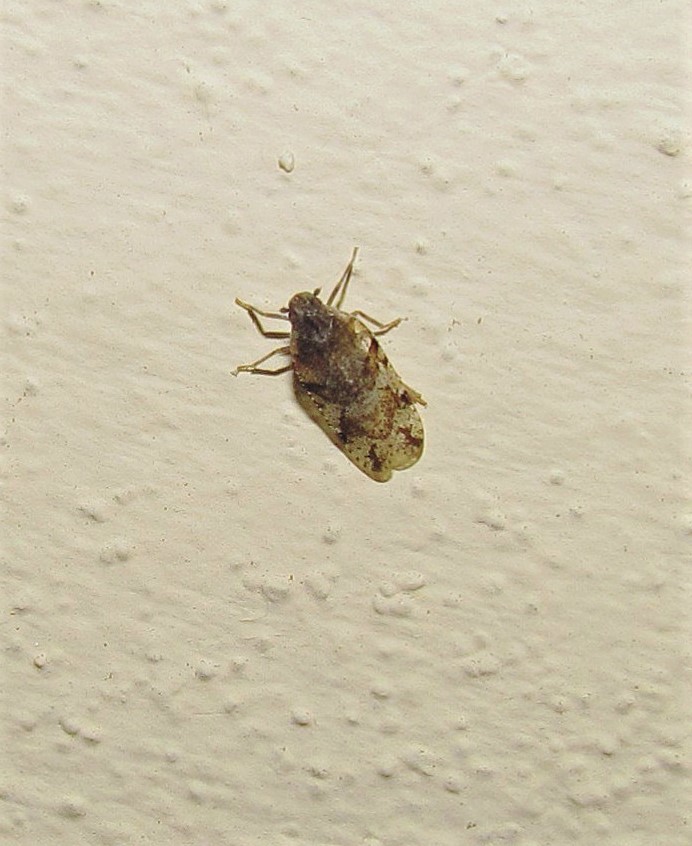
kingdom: Animalia
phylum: Arthropoda
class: Insecta
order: Hemiptera
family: Cixiidae
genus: Cixiosoma
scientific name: Cixiosoma bonaerense
